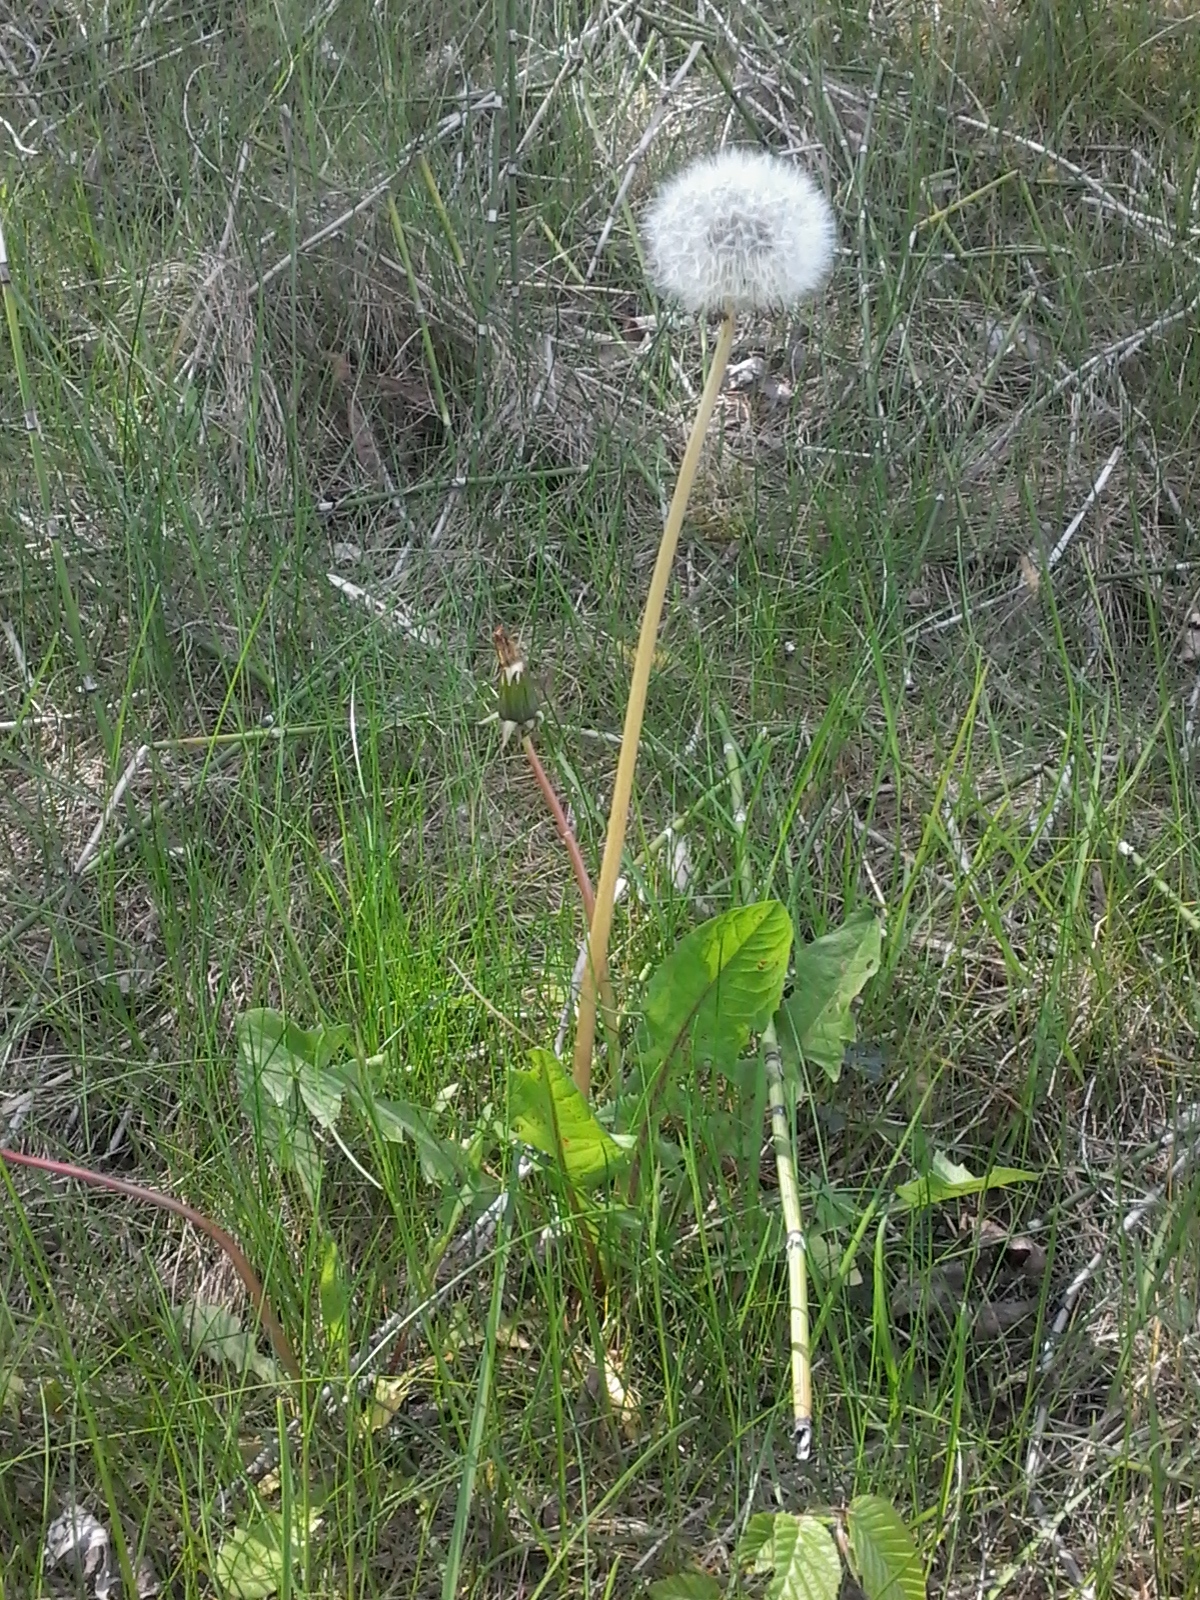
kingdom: Plantae
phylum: Tracheophyta
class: Magnoliopsida
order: Asterales
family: Asteraceae
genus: Taraxacum
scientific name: Taraxacum officinale
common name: Common dandelion
